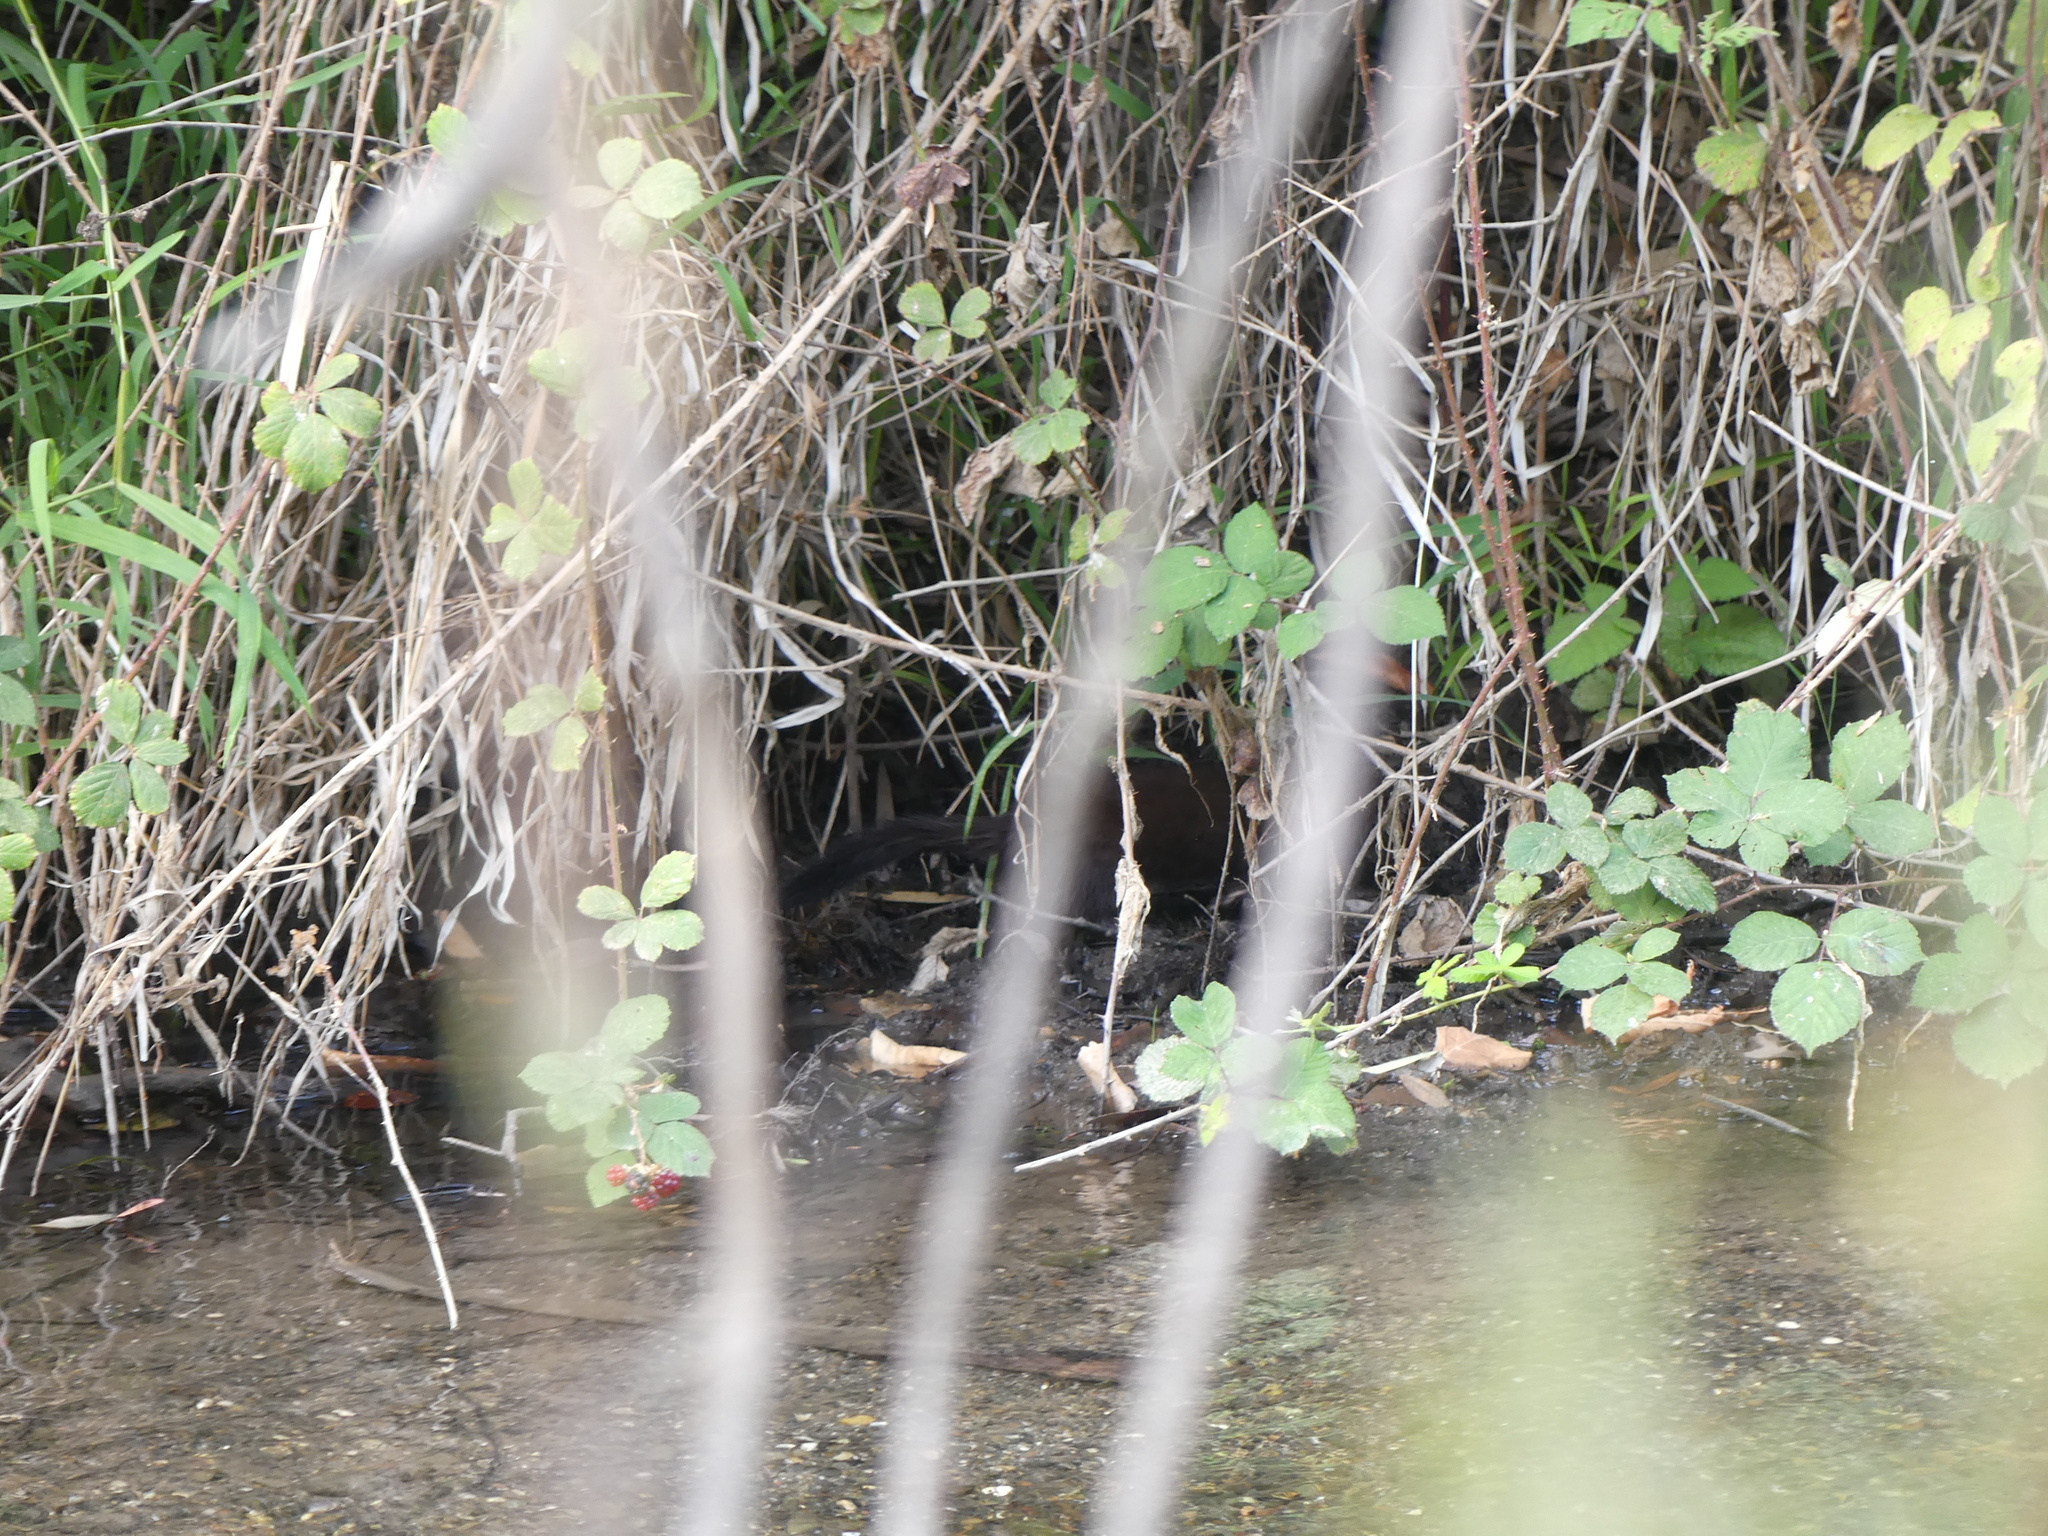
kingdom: Animalia
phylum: Chordata
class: Mammalia
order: Carnivora
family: Mustelidae
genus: Mustela
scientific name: Mustela
